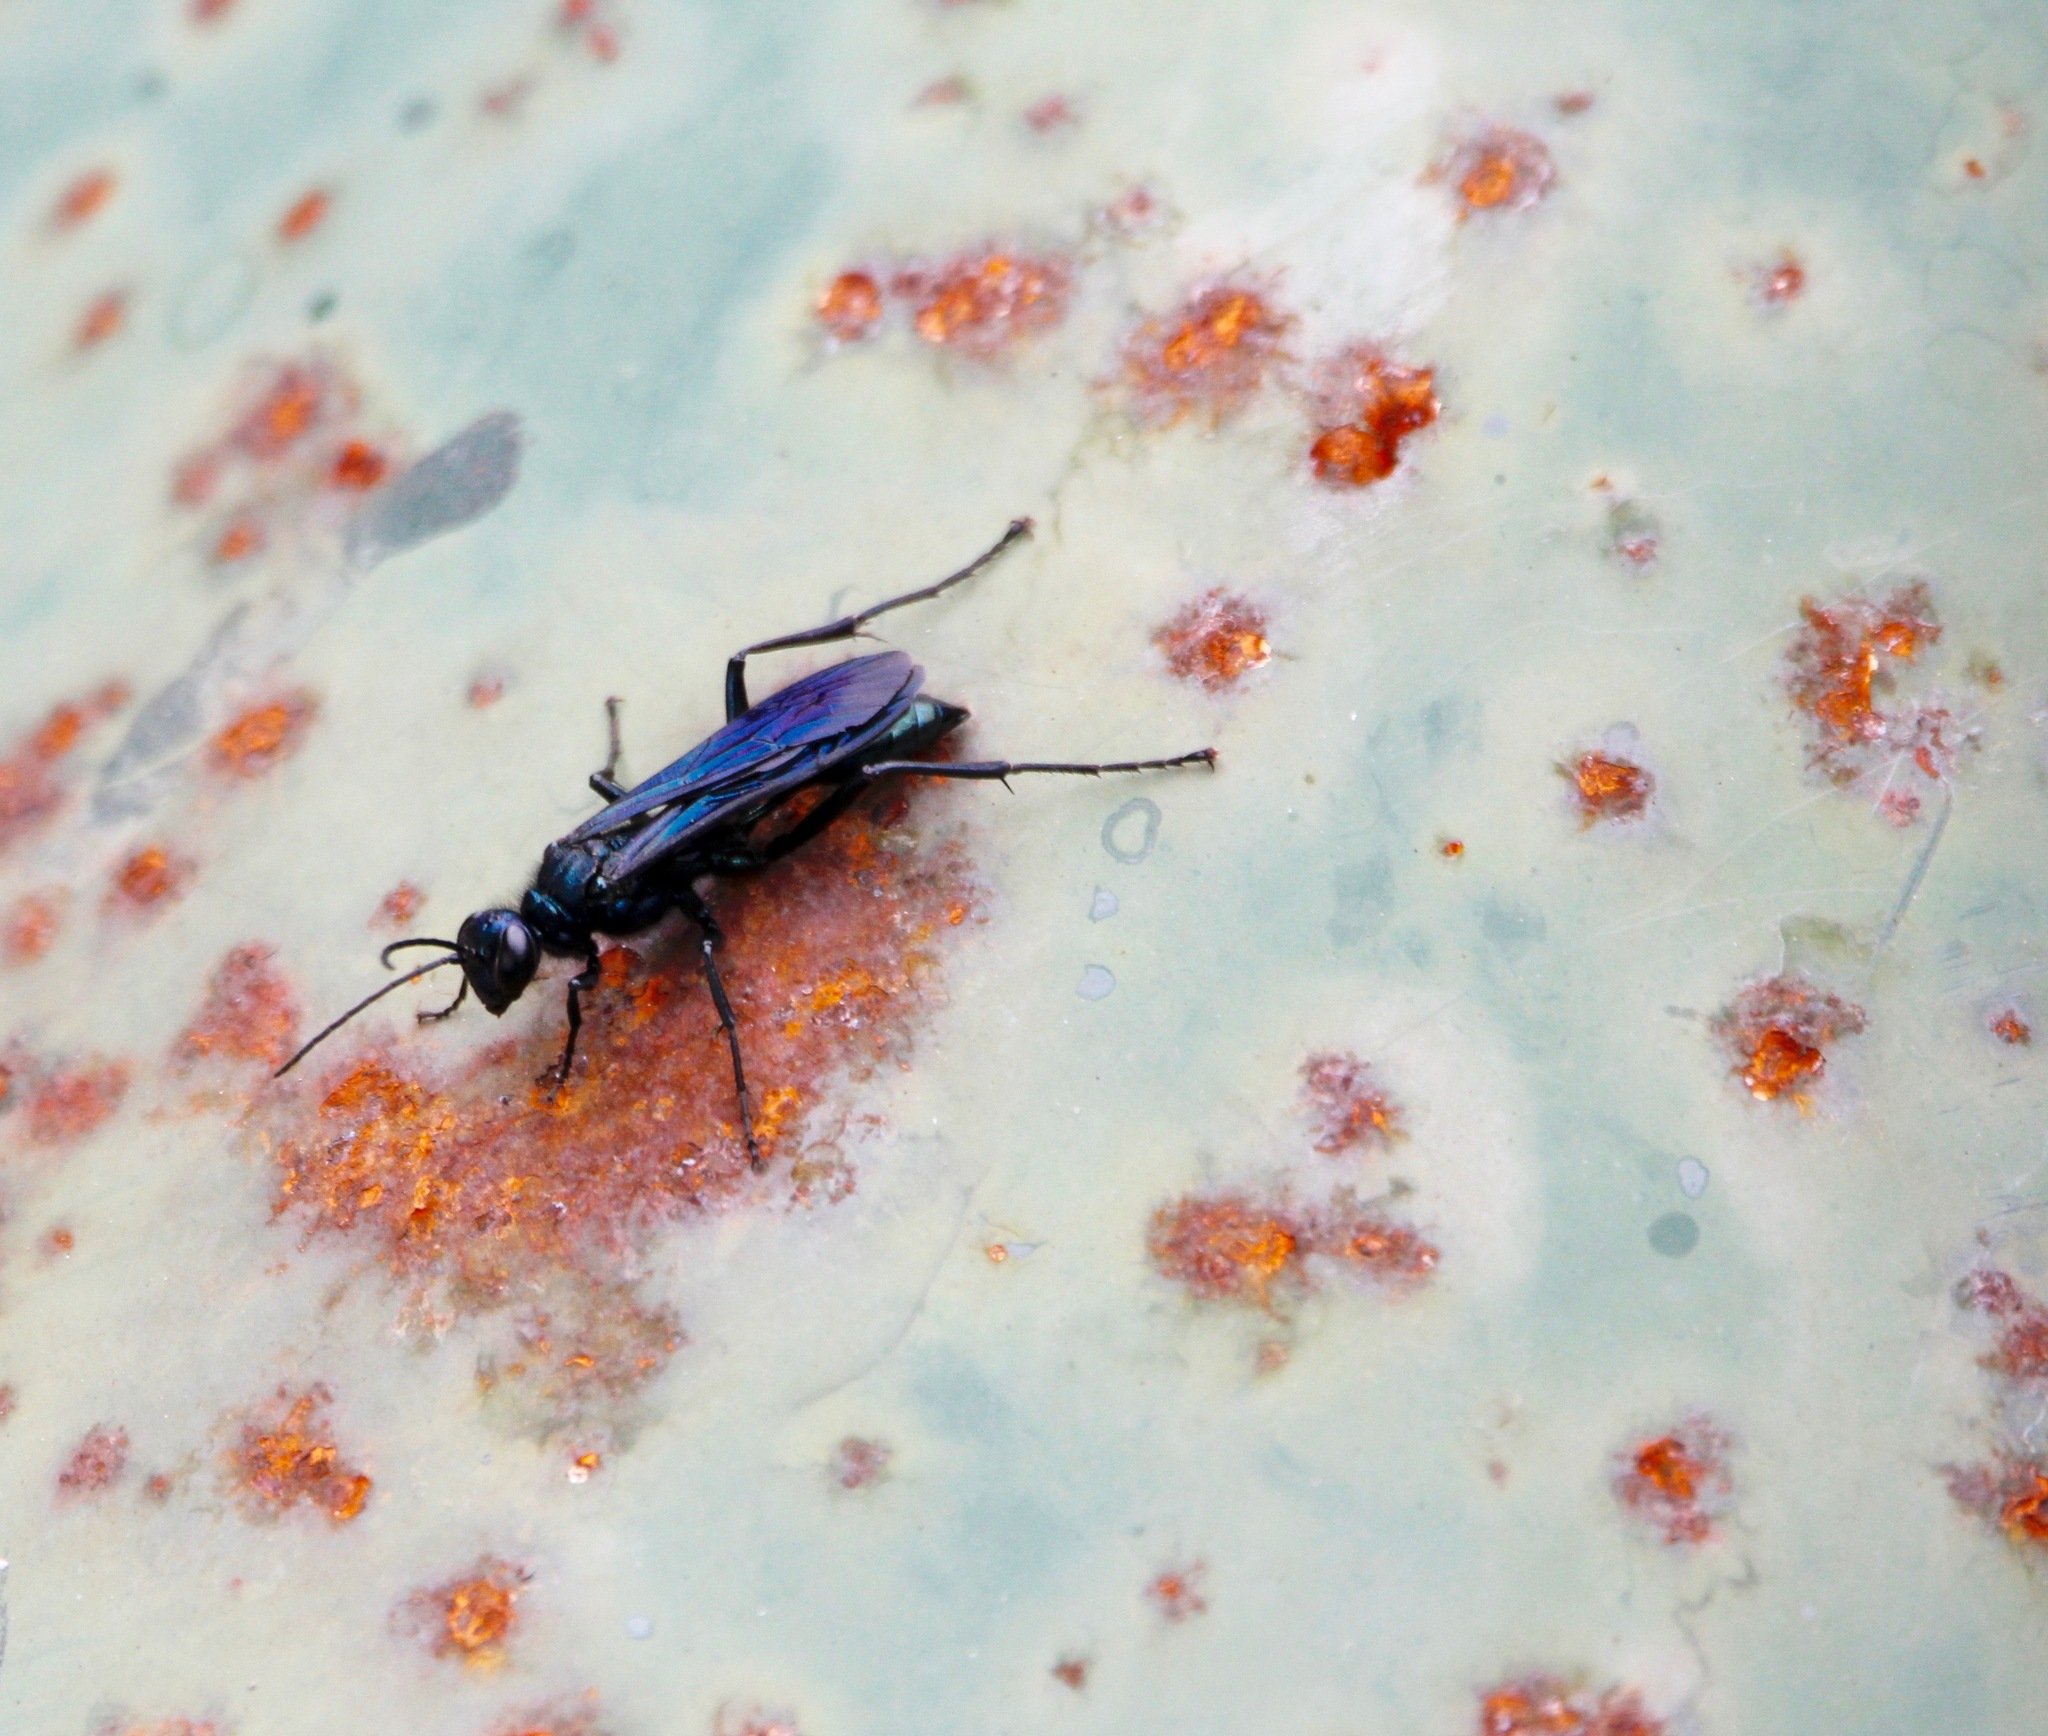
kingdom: Animalia
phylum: Arthropoda
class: Insecta
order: Hymenoptera
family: Sphecidae
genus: Chalybion
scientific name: Chalybion californicum
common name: Mud dauber
